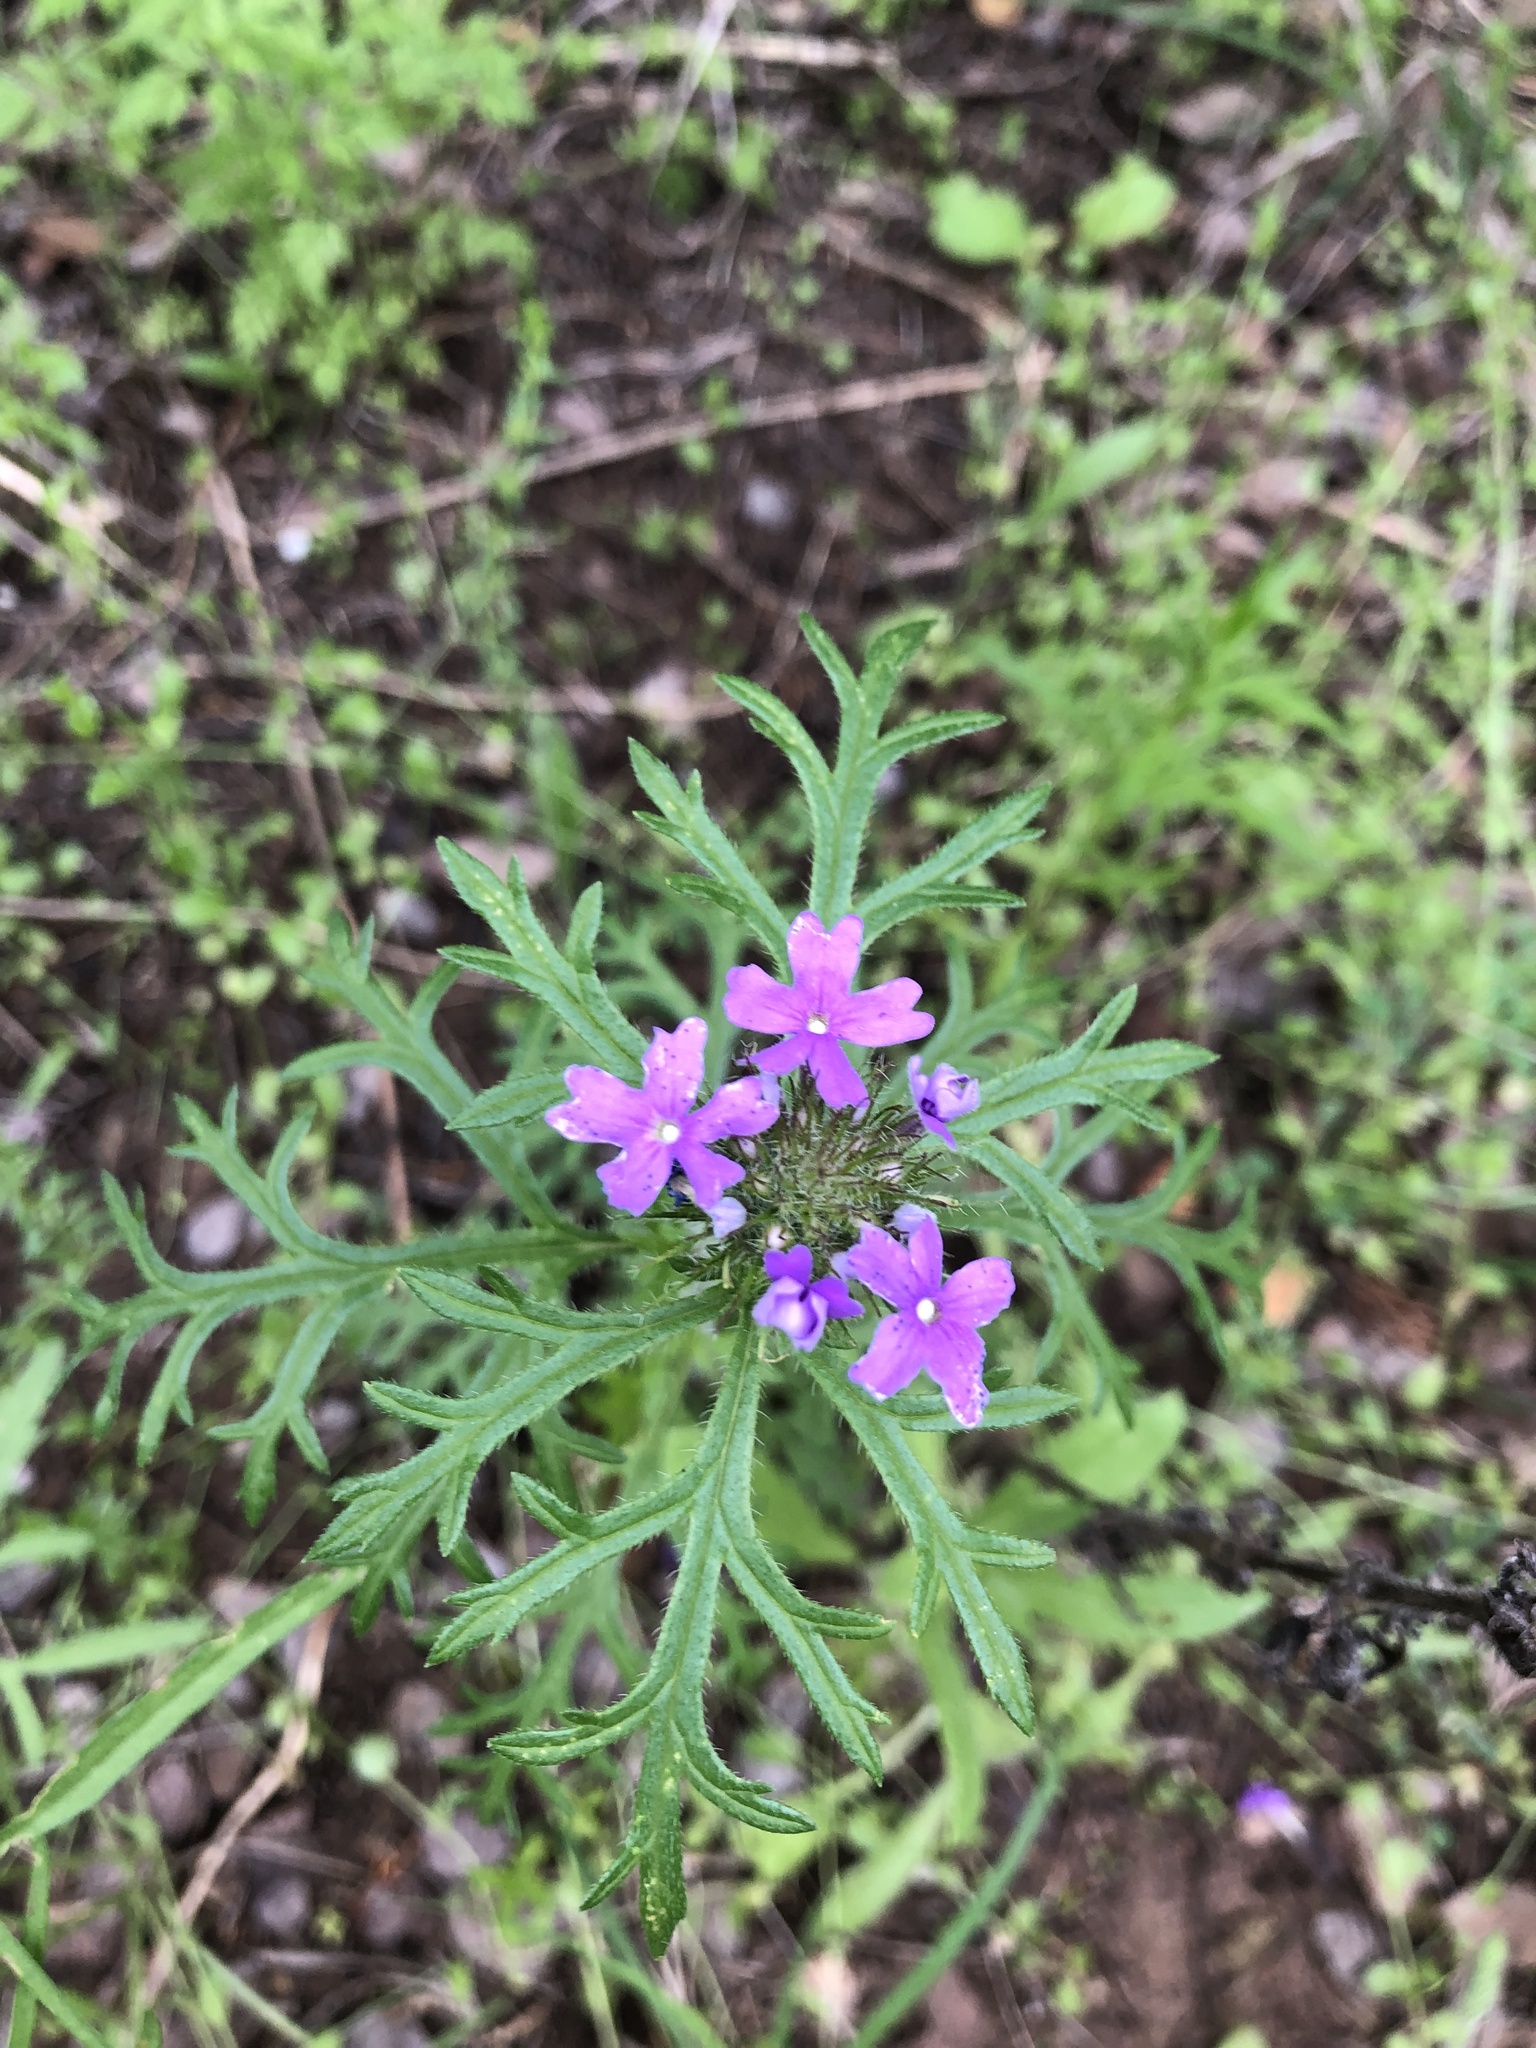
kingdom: Plantae
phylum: Tracheophyta
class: Magnoliopsida
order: Lamiales
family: Verbenaceae
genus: Verbena
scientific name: Verbena bipinnatifida
